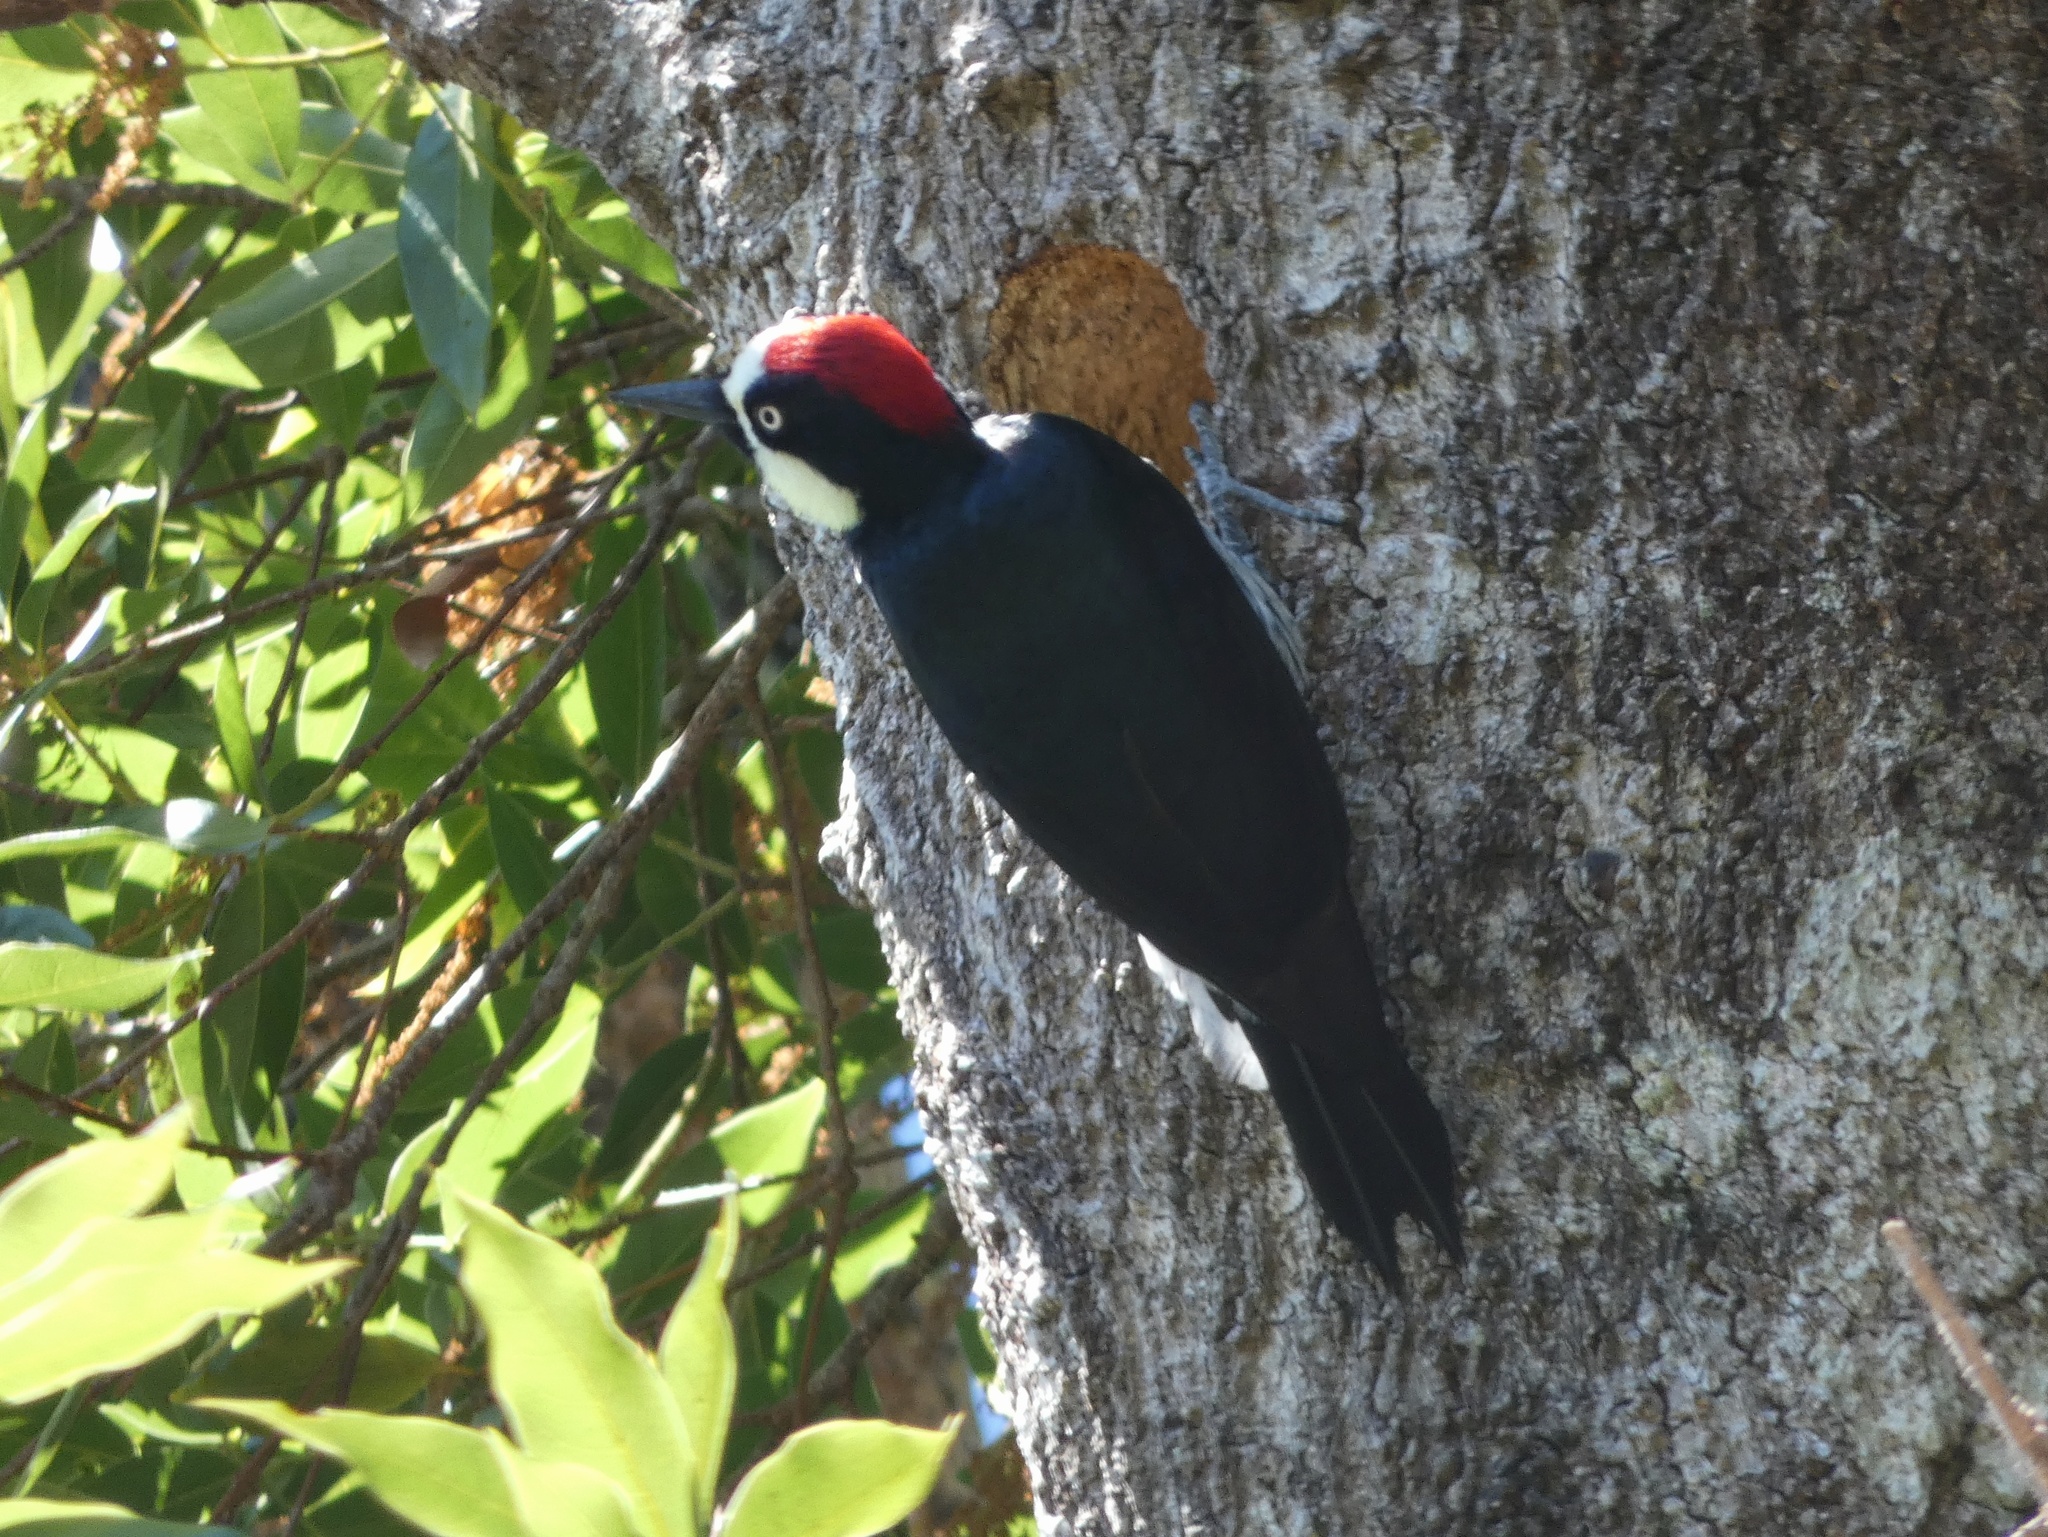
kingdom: Animalia
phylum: Chordata
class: Aves
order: Piciformes
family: Picidae
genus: Melanerpes
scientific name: Melanerpes formicivorus
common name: Acorn woodpecker
